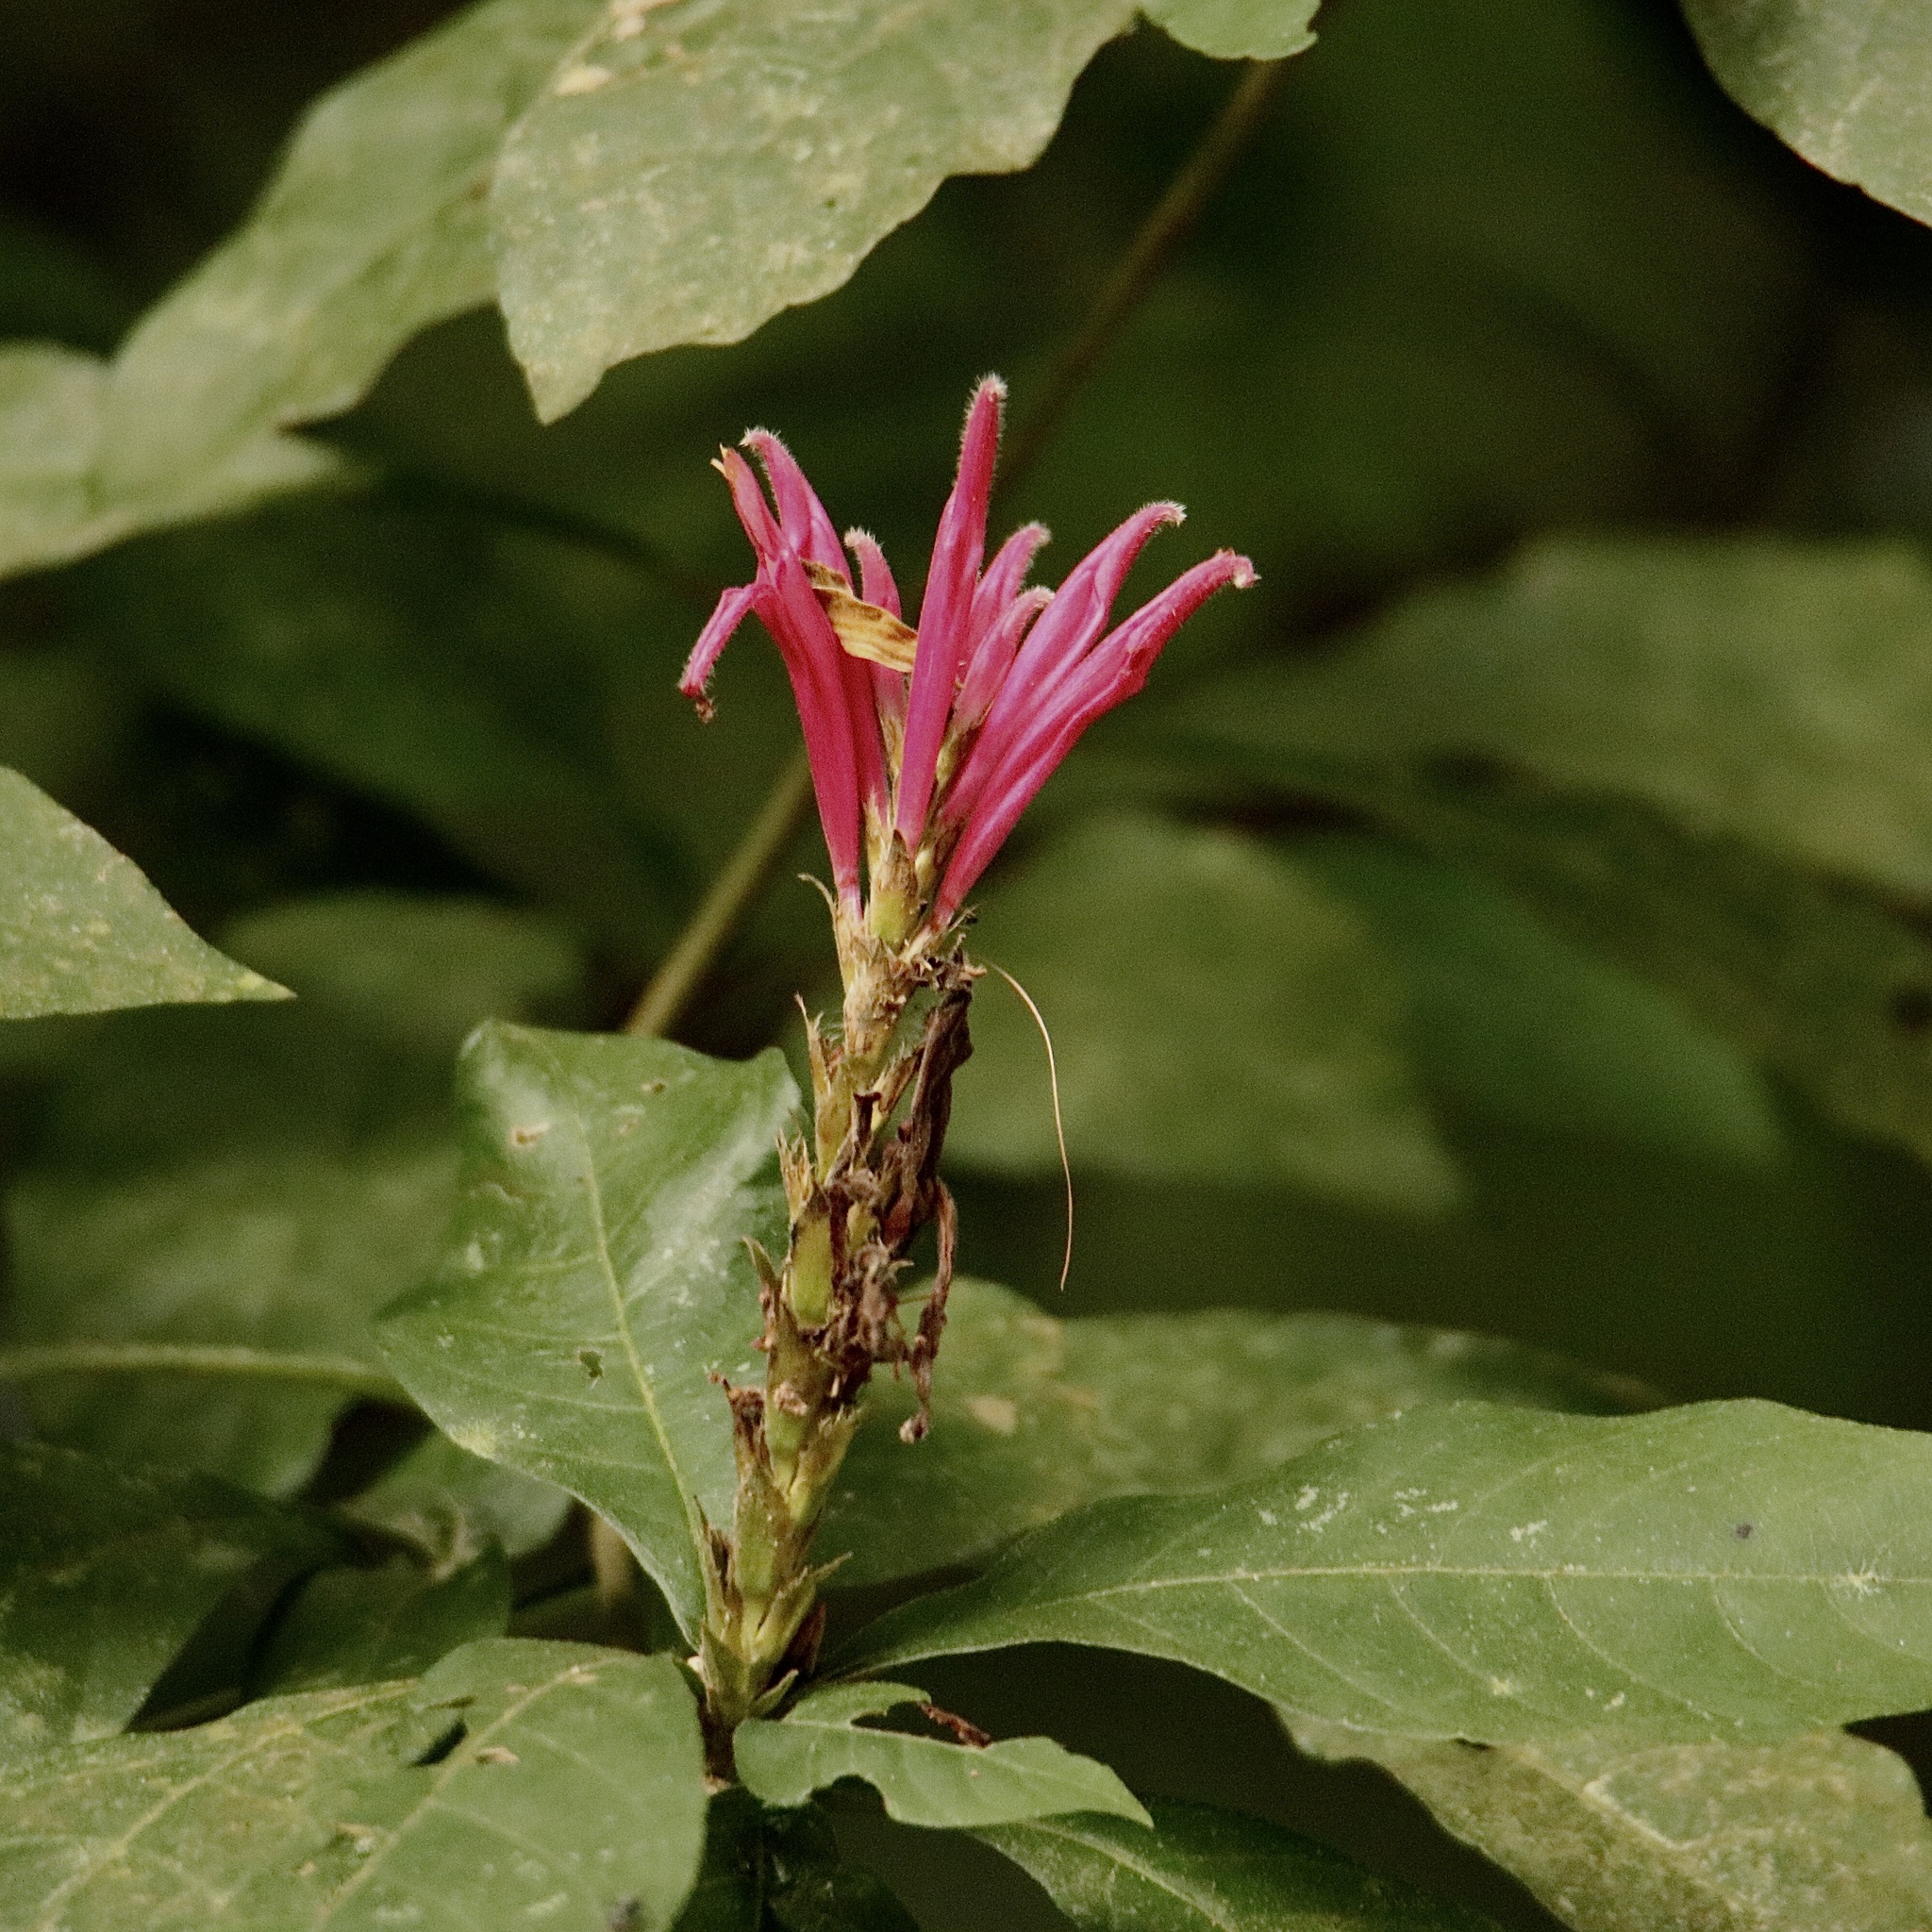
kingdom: Plantae
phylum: Tracheophyta
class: Magnoliopsida
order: Lamiales
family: Acanthaceae
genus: Aphelandra
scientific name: Aphelandra scabra
